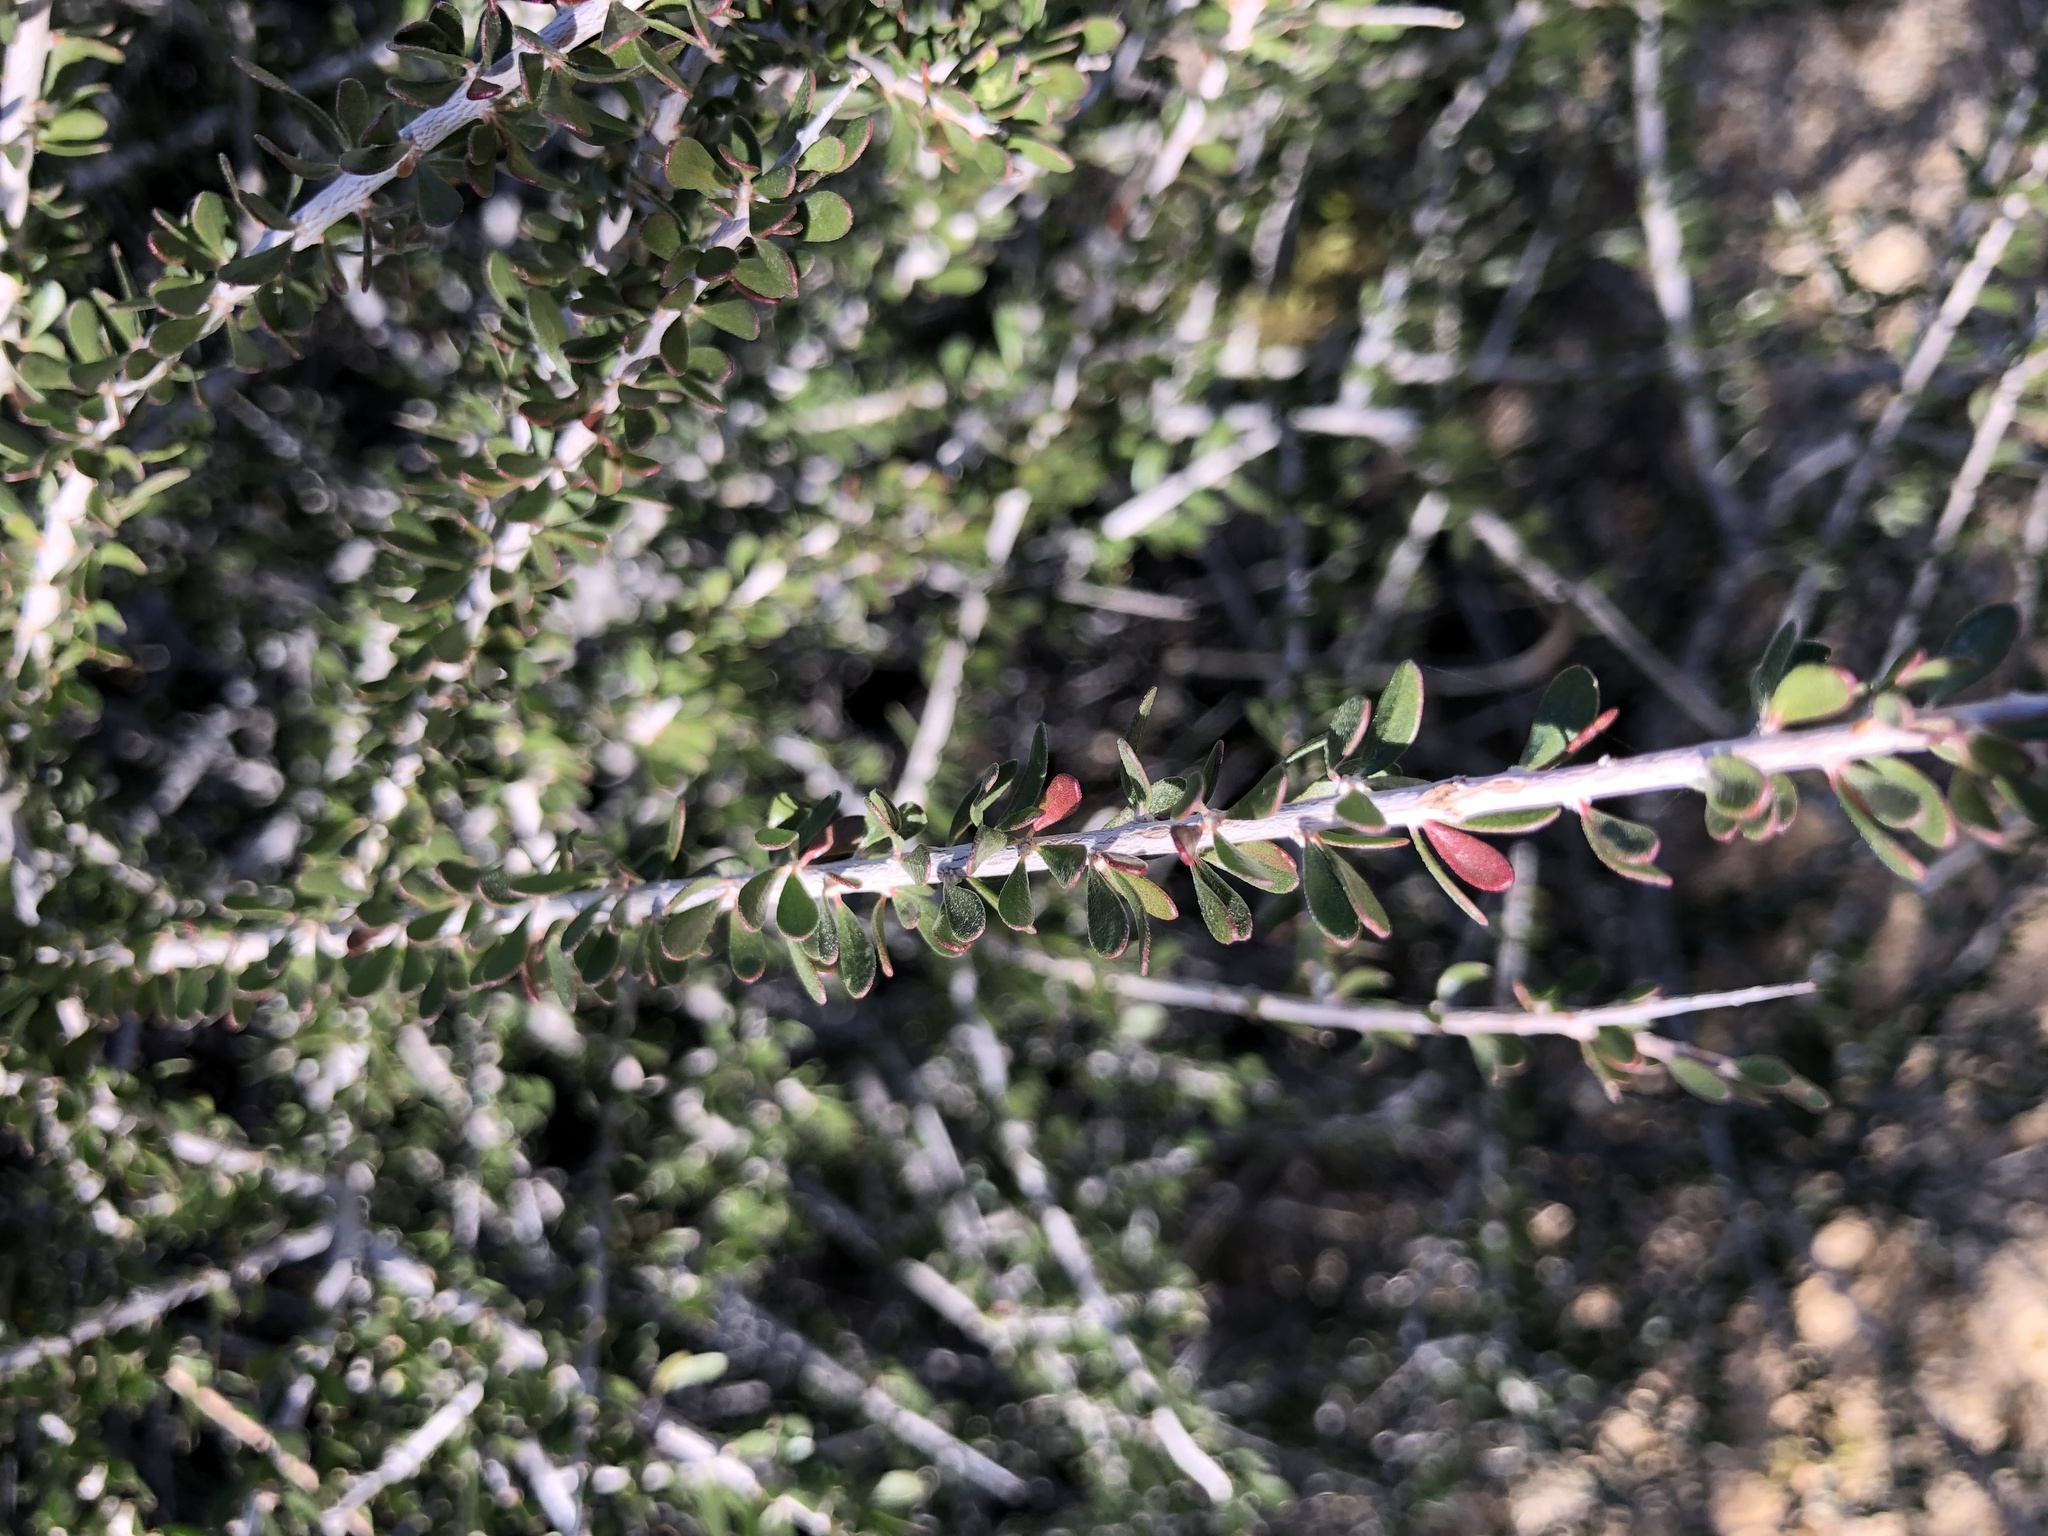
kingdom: Plantae
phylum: Tracheophyta
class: Magnoliopsida
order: Malpighiales
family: Picrodendraceae
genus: Tetracoccus
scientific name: Tetracoccus hallii
